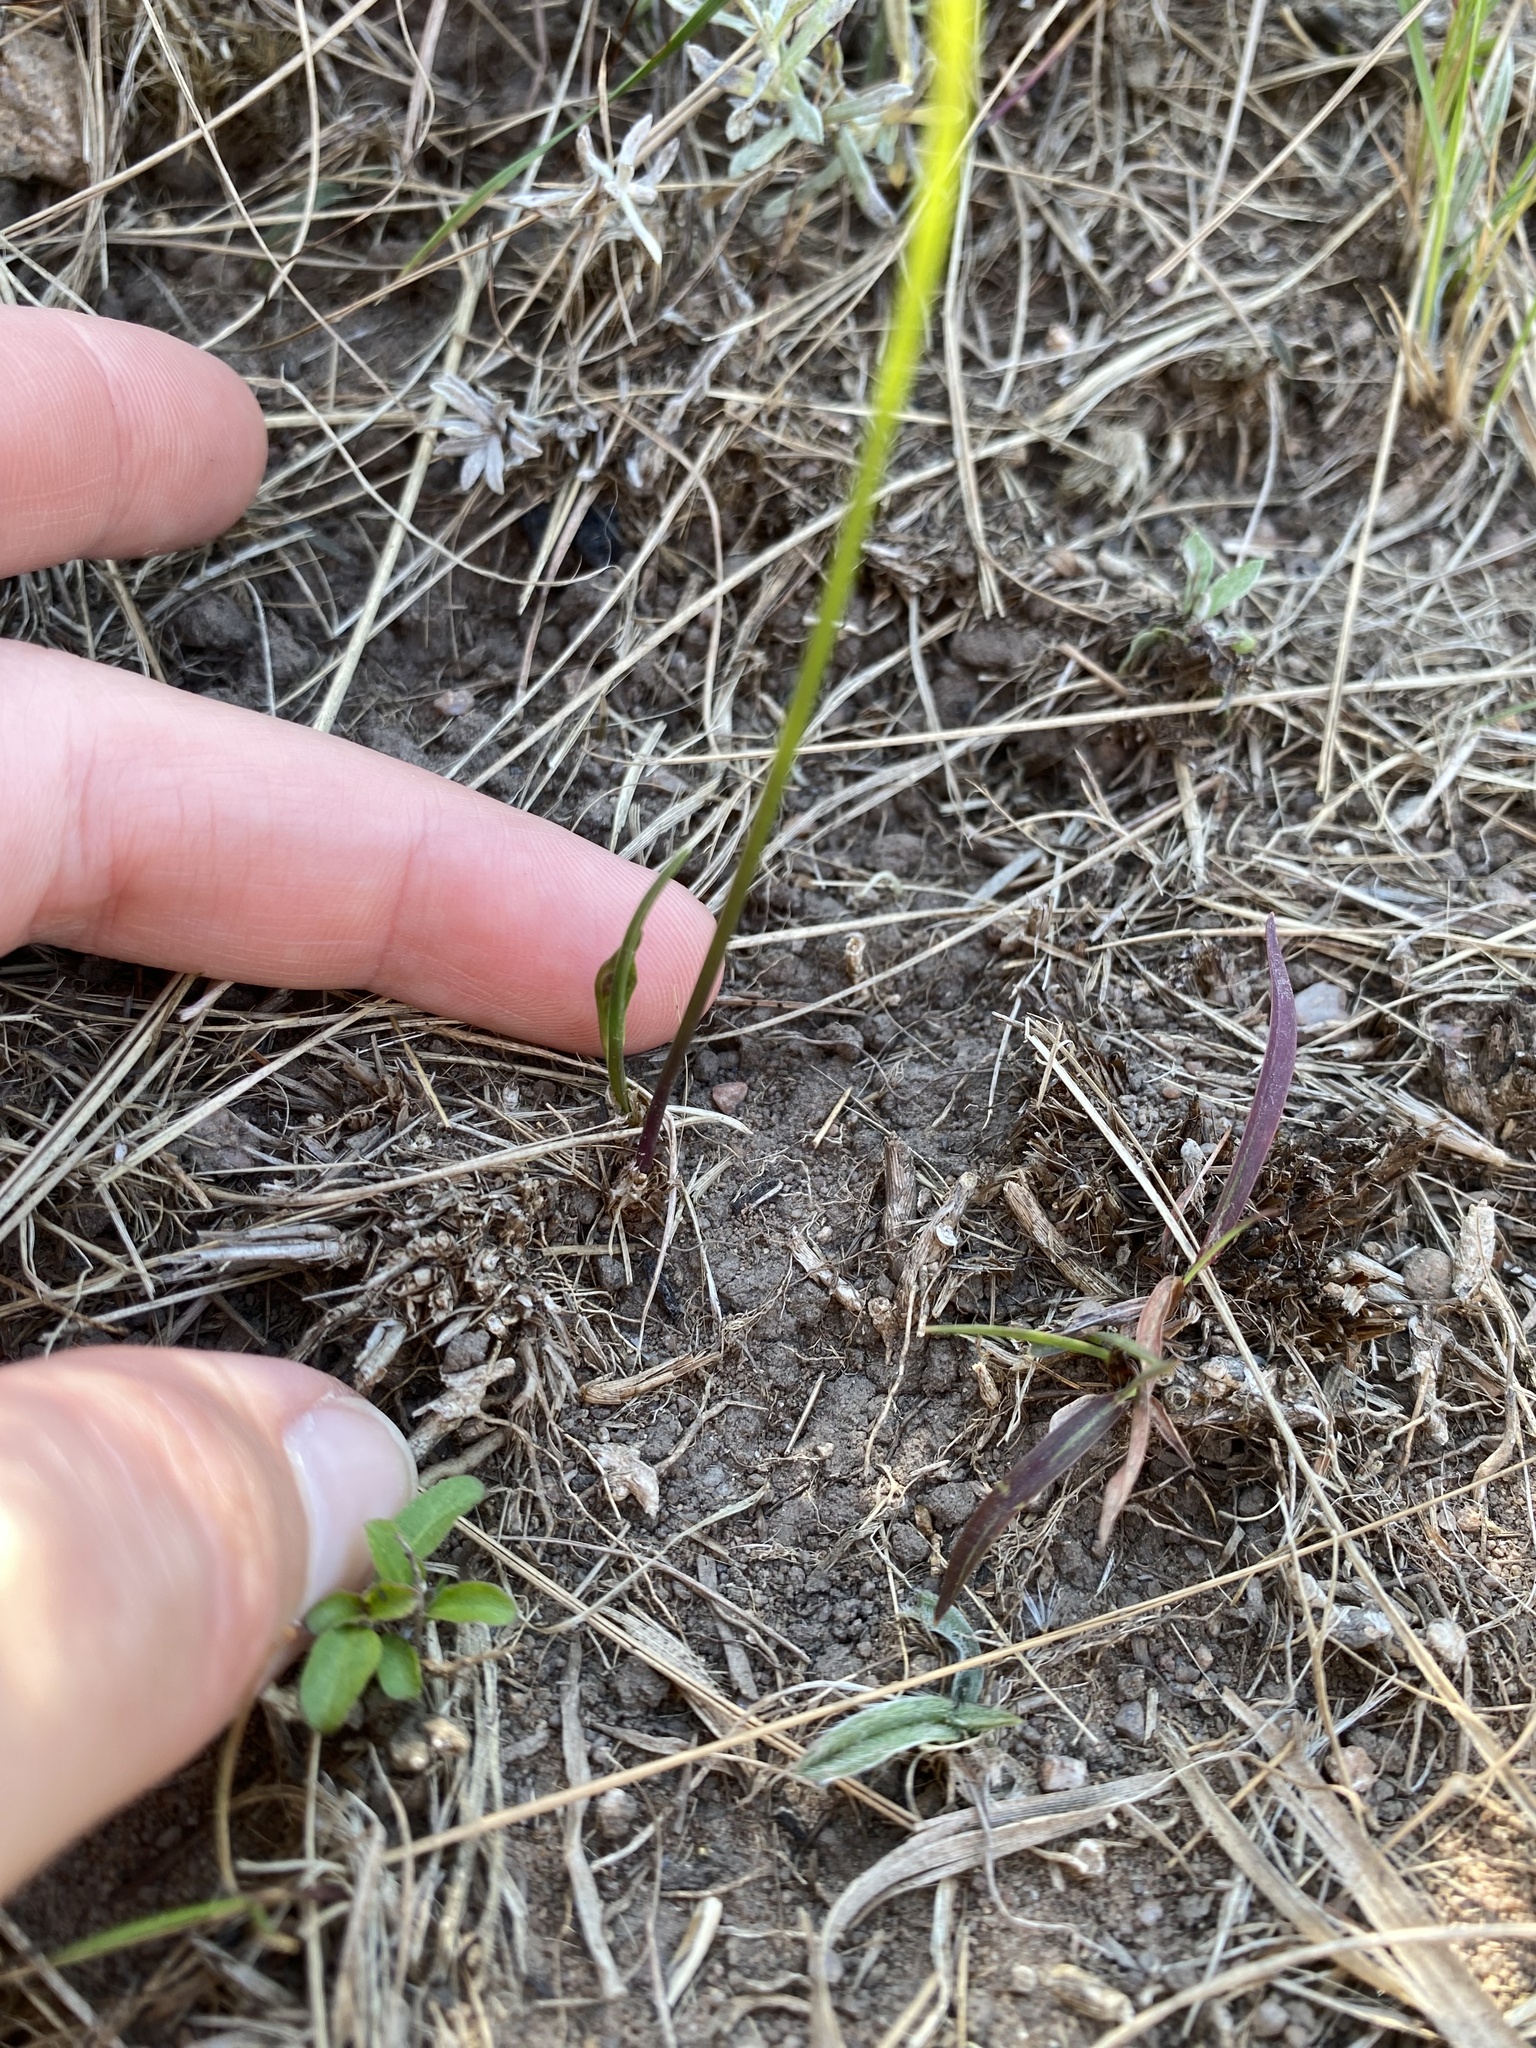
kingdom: Plantae
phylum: Tracheophyta
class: Liliopsida
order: Asparagales
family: Amaryllidaceae
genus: Tulbaghia
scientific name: Tulbaghia acutiloba
